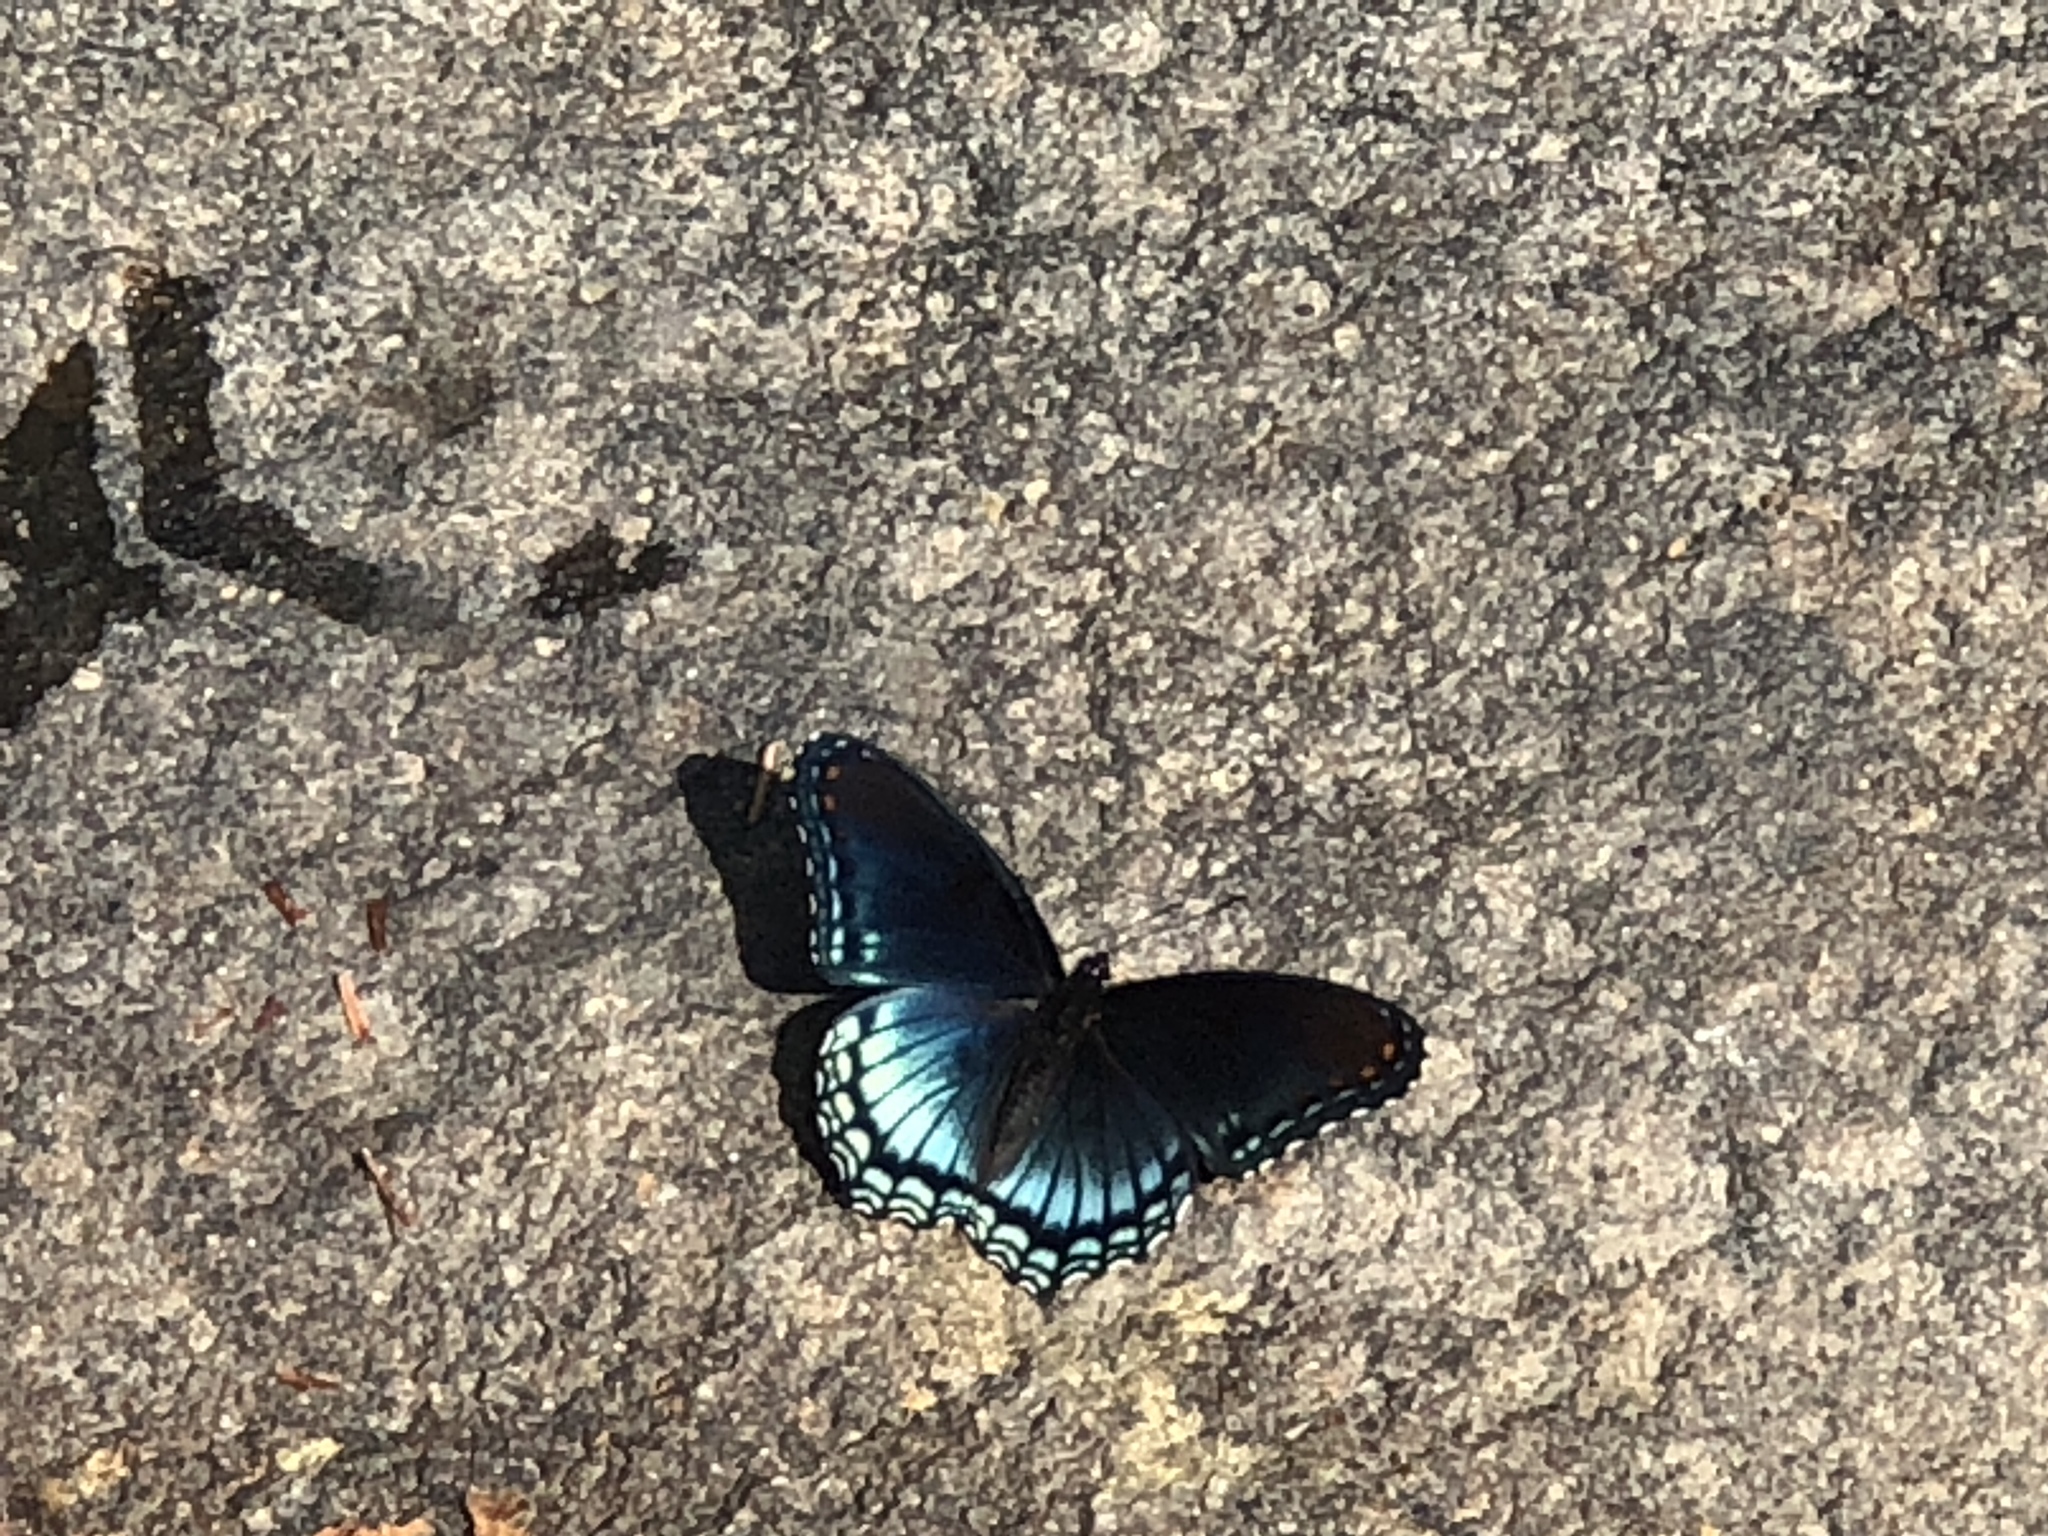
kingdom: Animalia
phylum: Arthropoda
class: Insecta
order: Lepidoptera
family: Nymphalidae
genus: Limenitis
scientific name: Limenitis arthemis
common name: Red-spotted admiral
